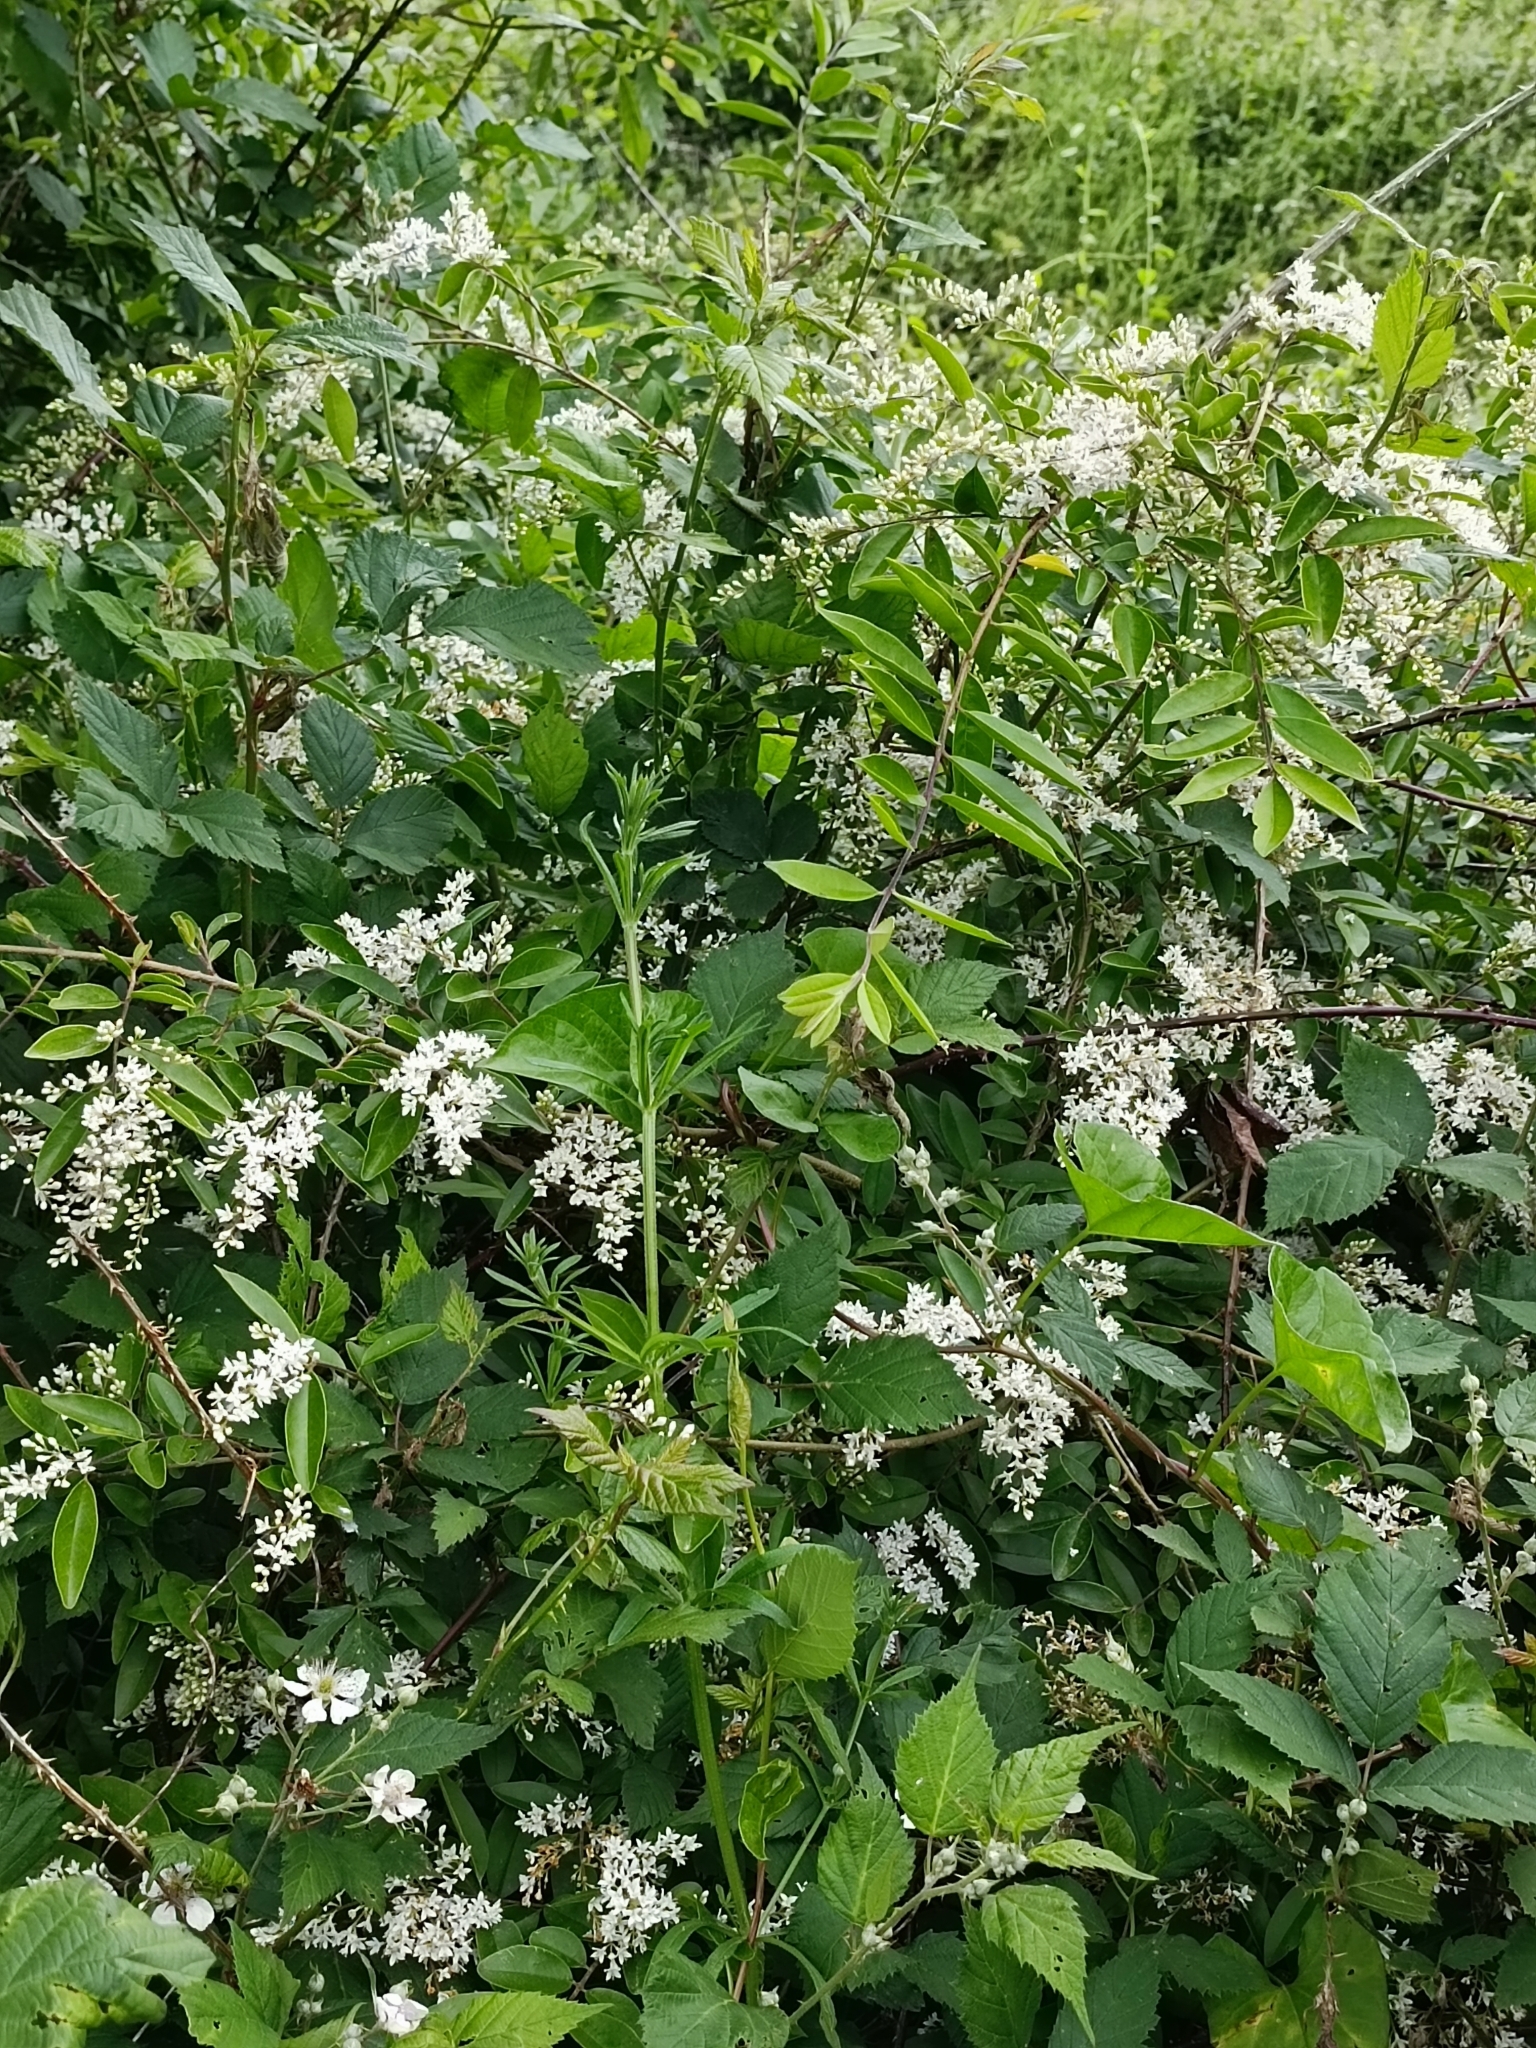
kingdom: Plantae
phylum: Tracheophyta
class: Magnoliopsida
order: Lamiales
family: Oleaceae
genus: Ligustrum
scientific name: Ligustrum sinense
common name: Chinese privet
